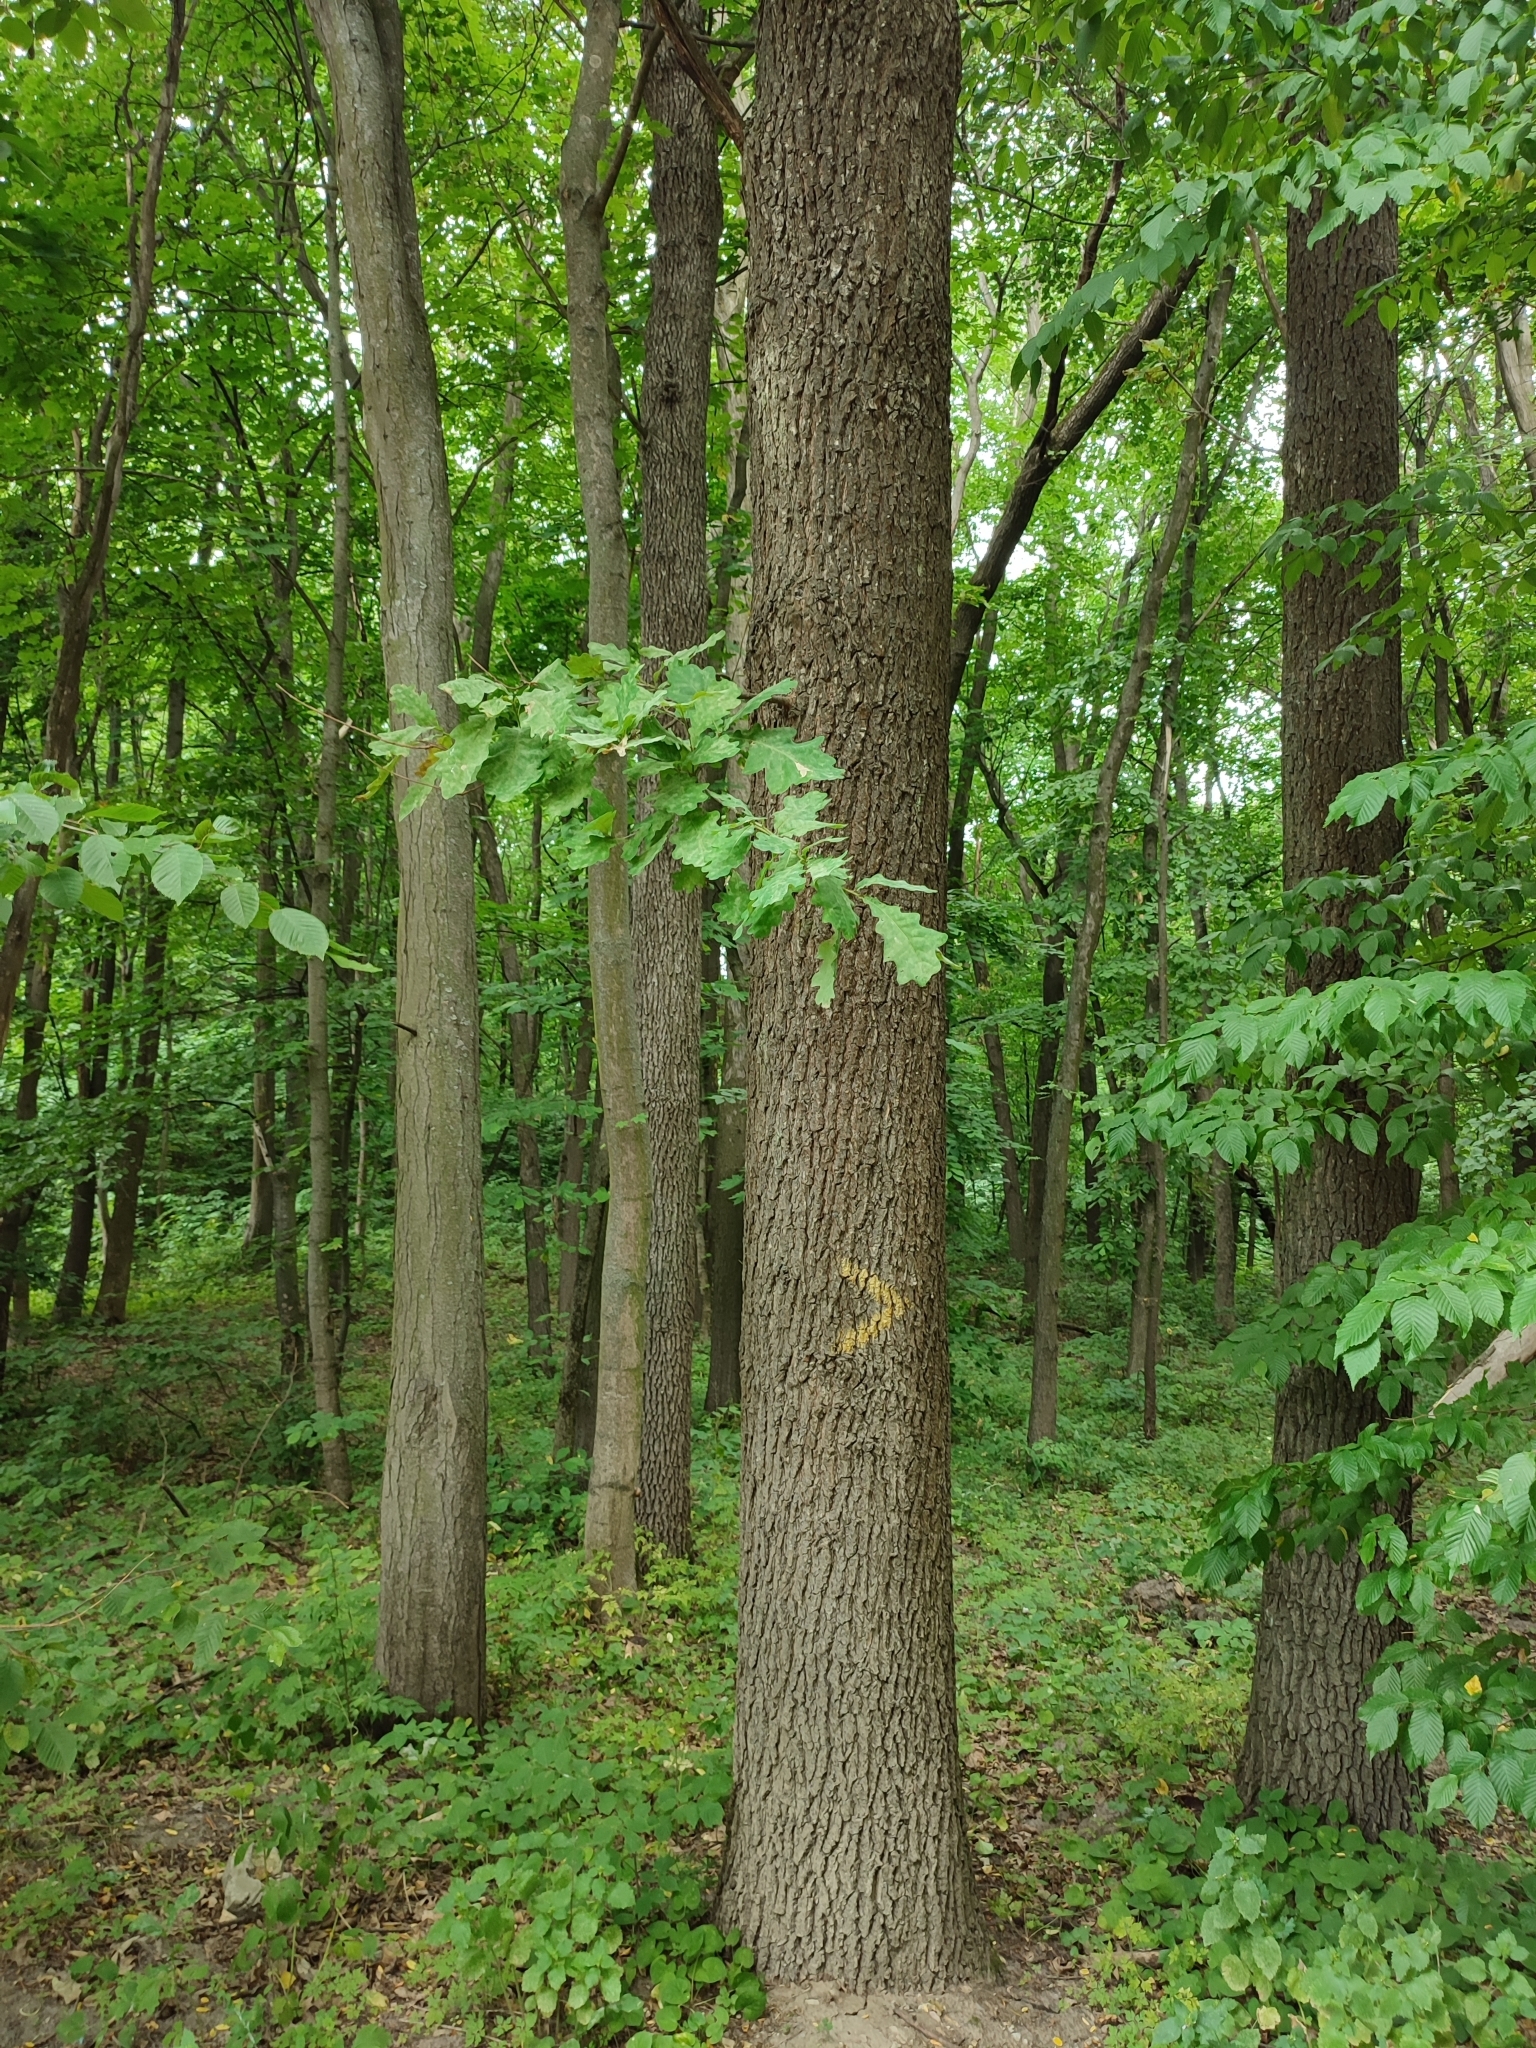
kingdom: Plantae
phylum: Tracheophyta
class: Magnoliopsida
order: Fagales
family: Fagaceae
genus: Quercus
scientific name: Quercus robur
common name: Pedunculate oak
